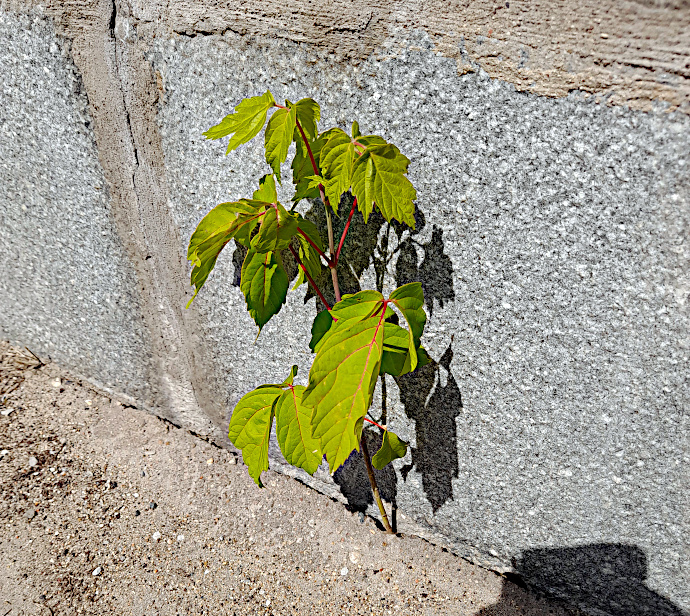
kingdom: Plantae
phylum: Tracheophyta
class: Magnoliopsida
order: Sapindales
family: Sapindaceae
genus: Acer
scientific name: Acer negundo
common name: Ashleaf maple
